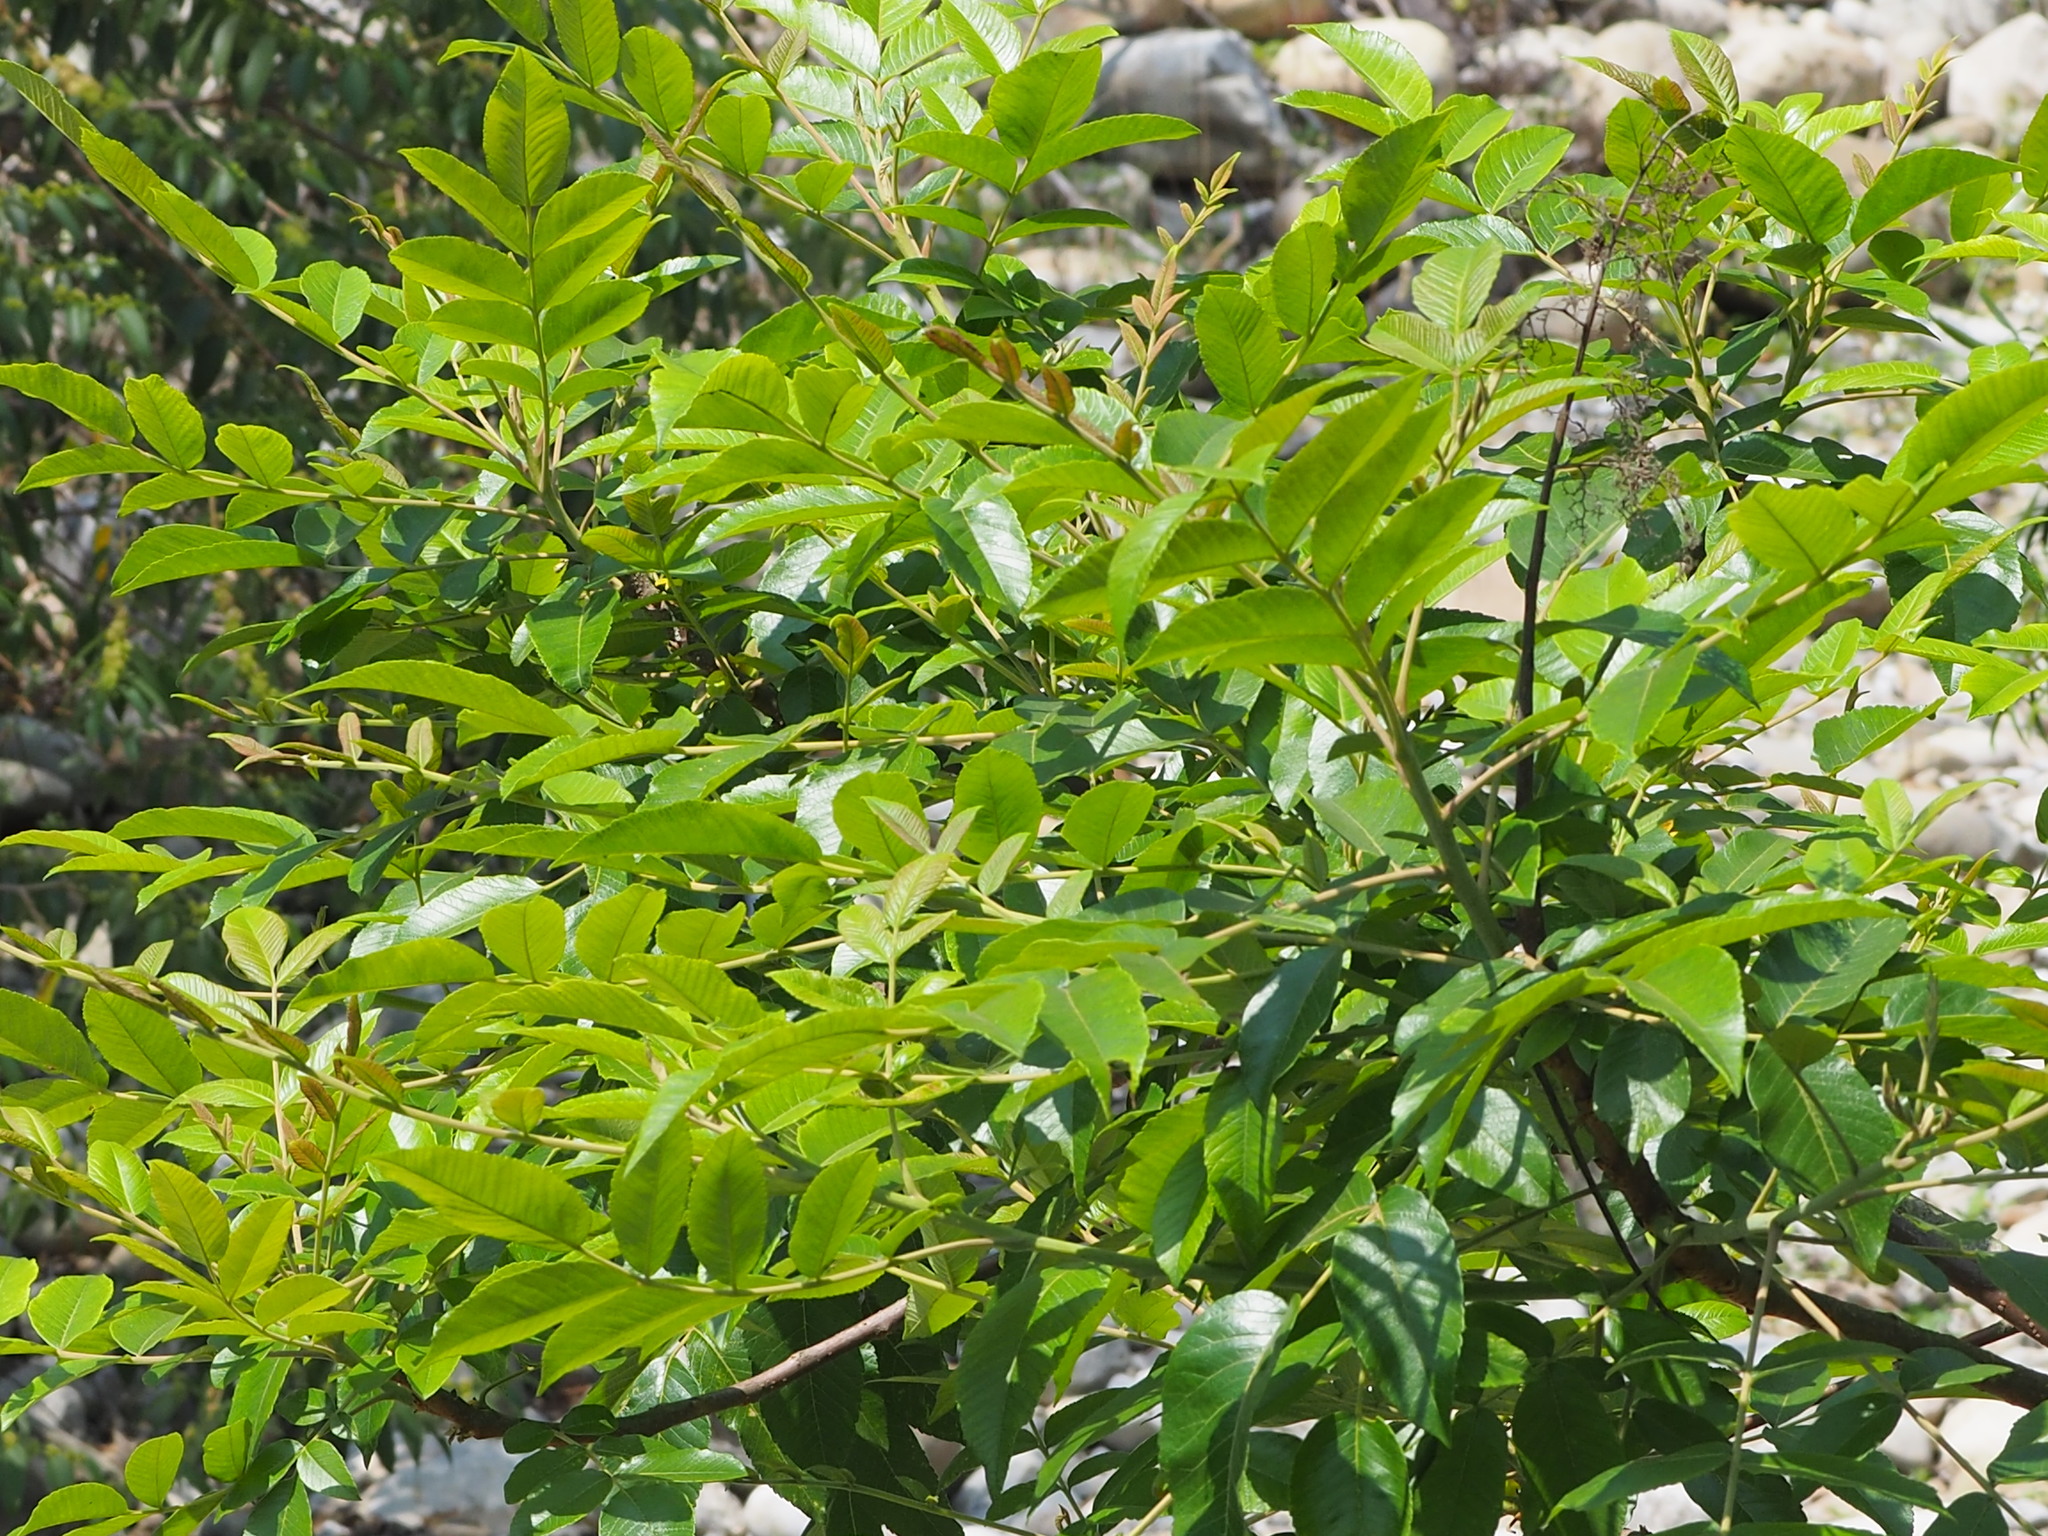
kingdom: Plantae
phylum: Tracheophyta
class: Magnoliopsida
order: Sapindales
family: Anacardiaceae
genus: Rhus
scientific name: Rhus chinensis
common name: Chinese gall
